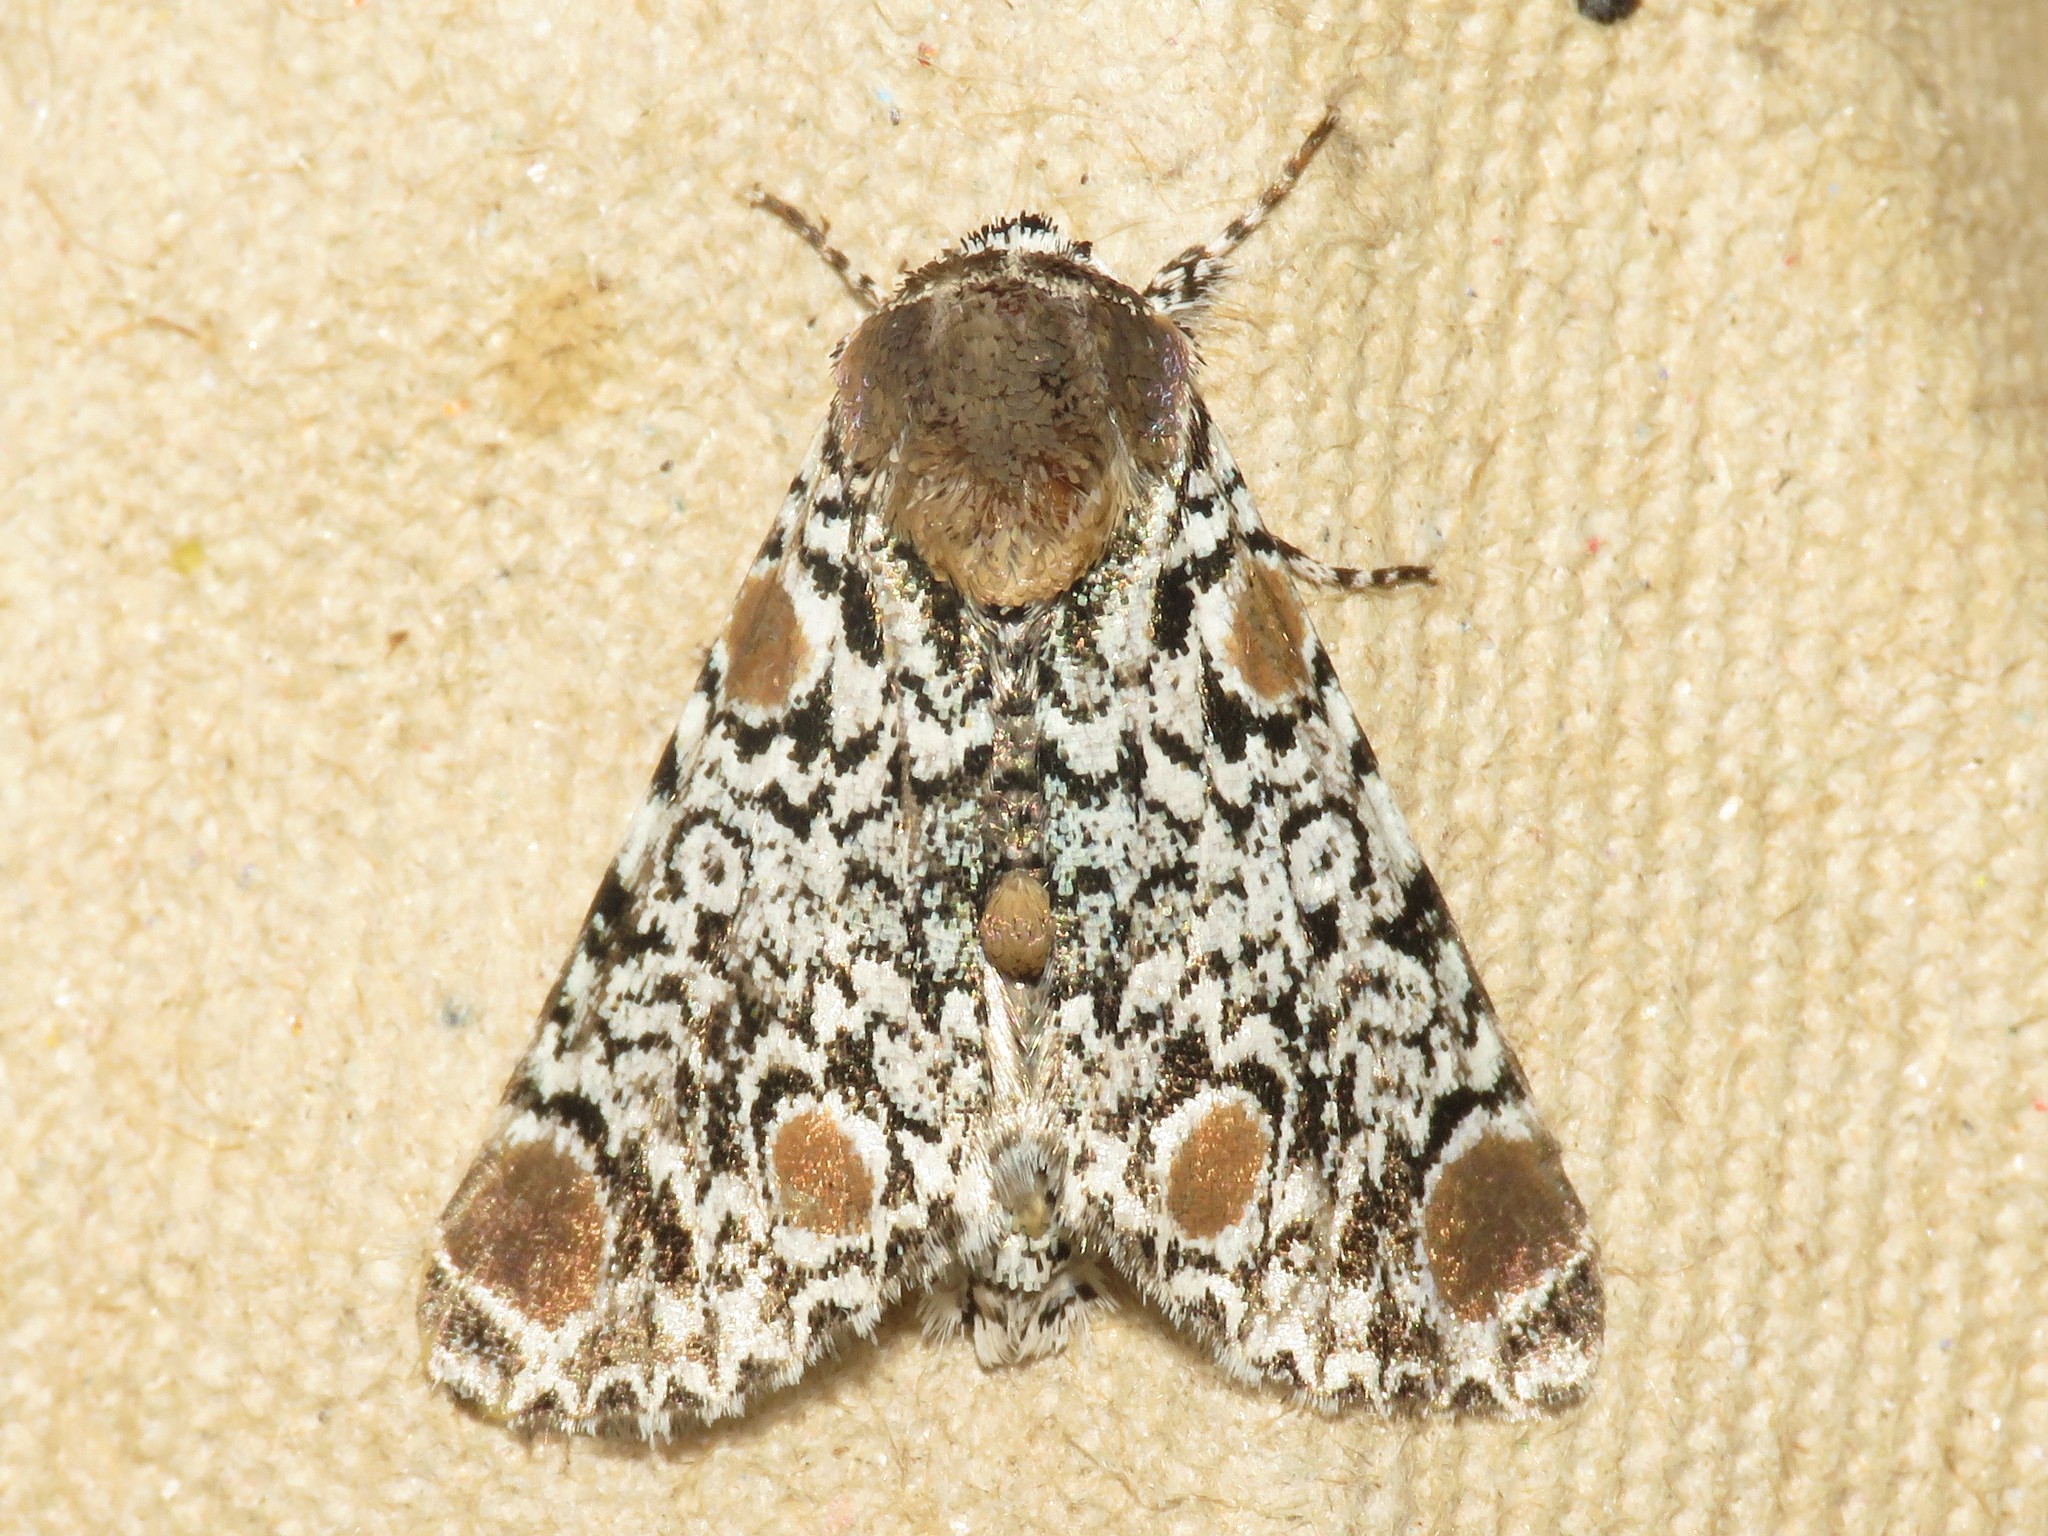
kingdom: Animalia
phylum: Arthropoda
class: Insecta
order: Lepidoptera
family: Noctuidae
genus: Harrisimemna
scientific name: Harrisimemna trisignata
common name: Harris threespot
